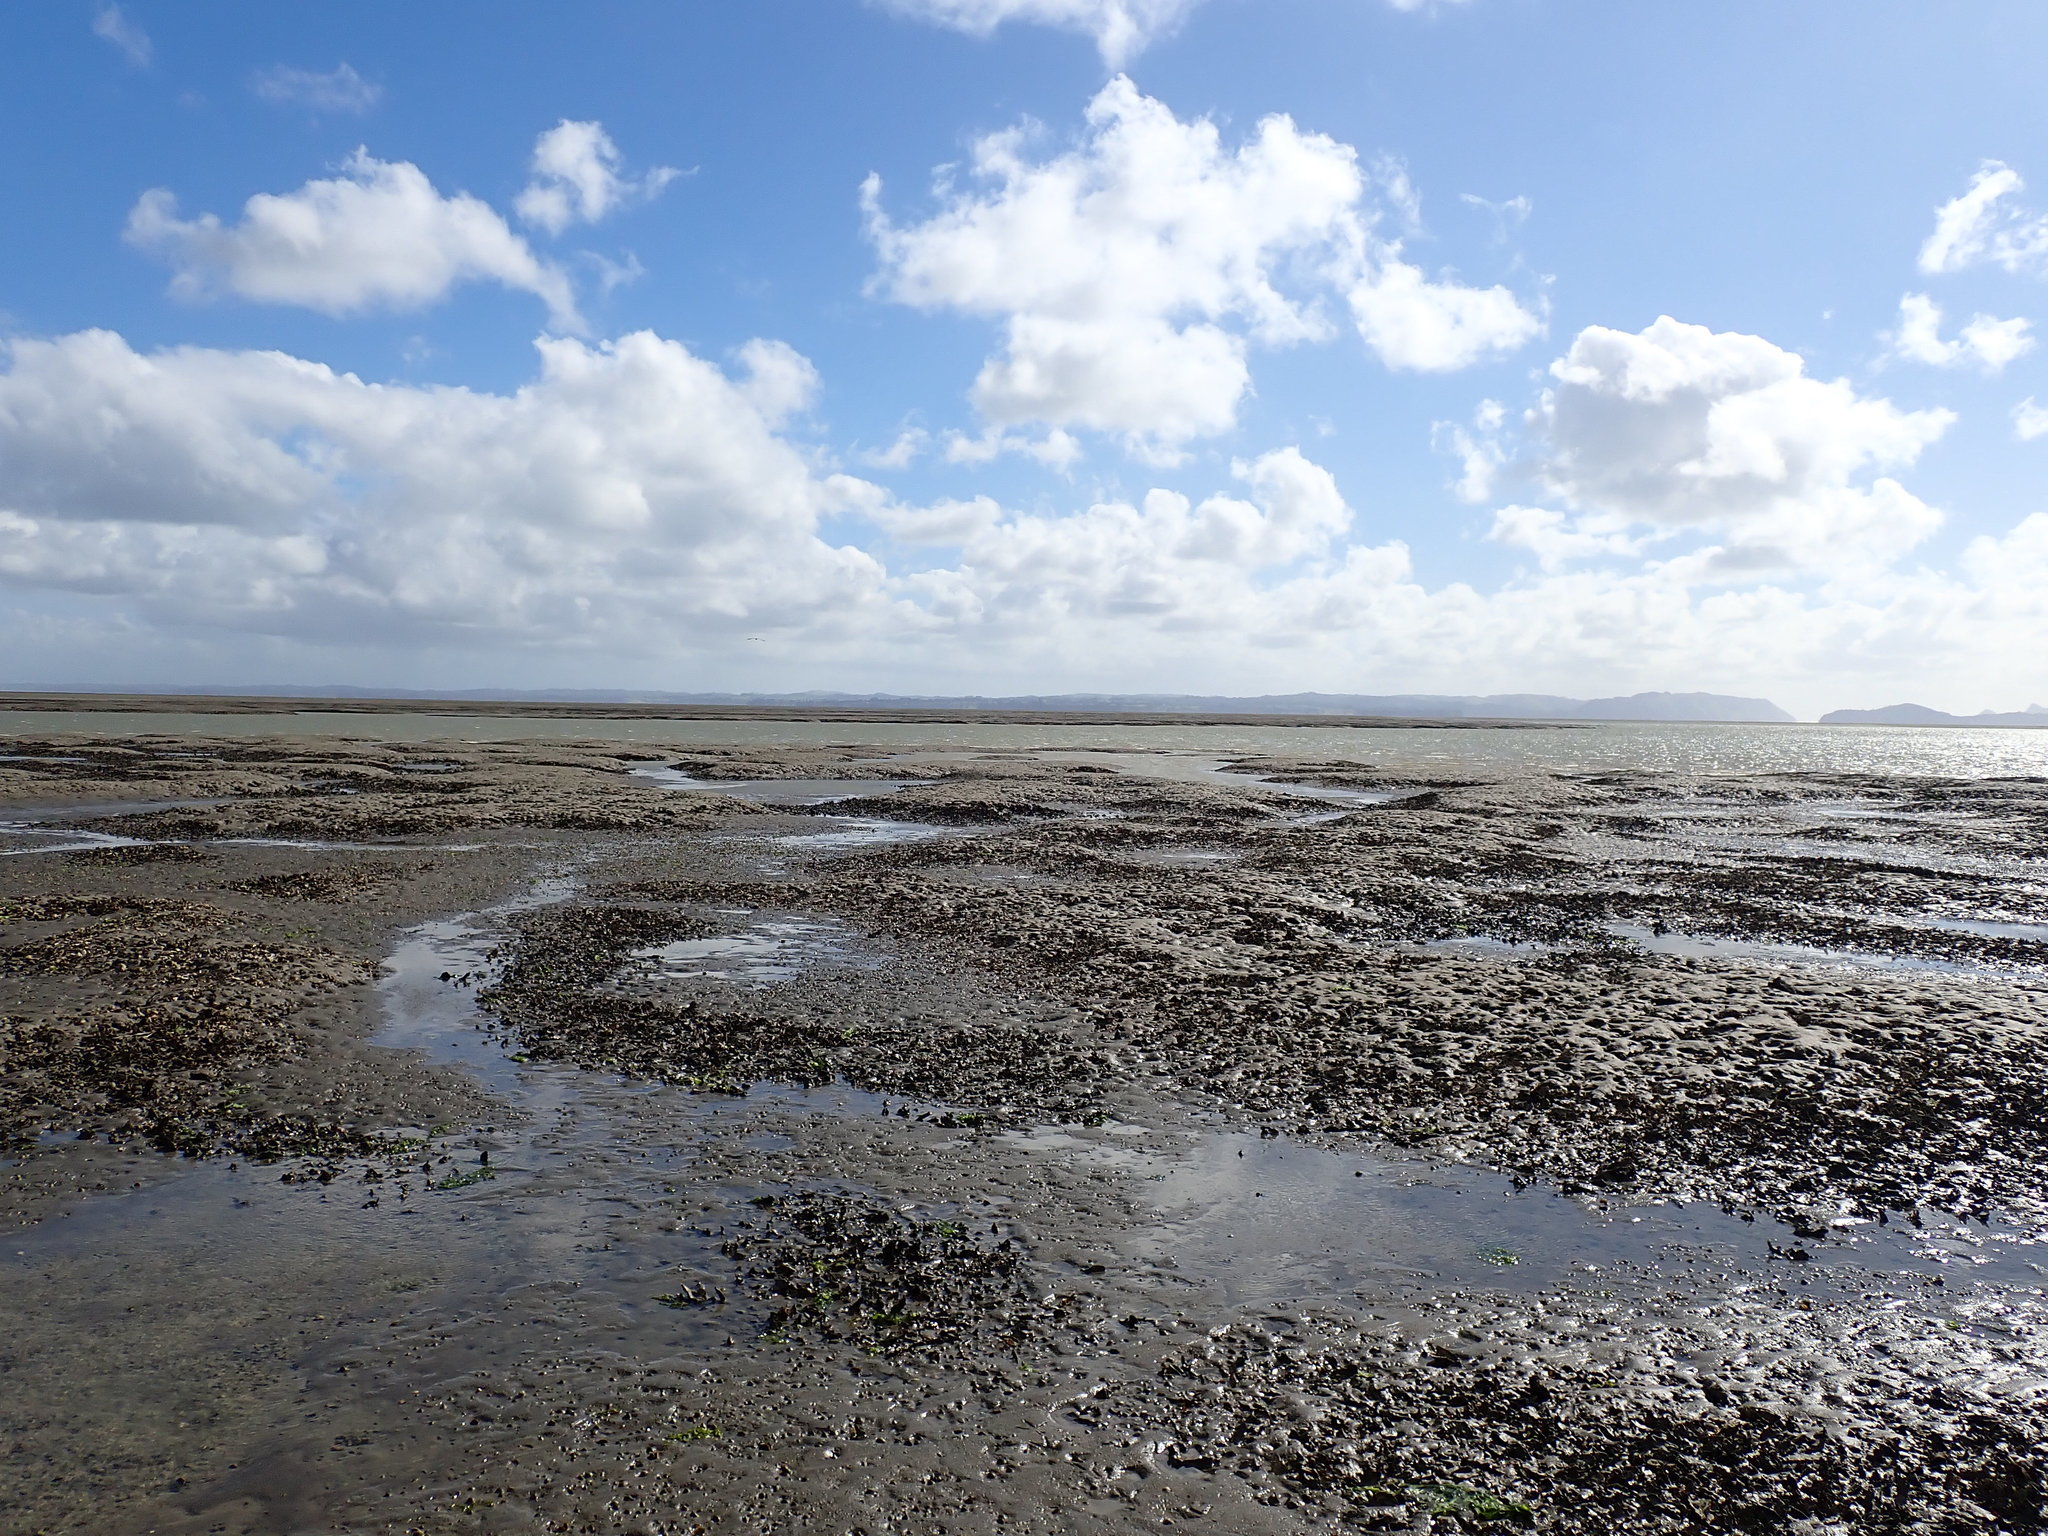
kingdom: Animalia
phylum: Mollusca
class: Bivalvia
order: Ostreida
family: Ostreidae
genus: Magallana
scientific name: Magallana gigas
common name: Pacific oyster
